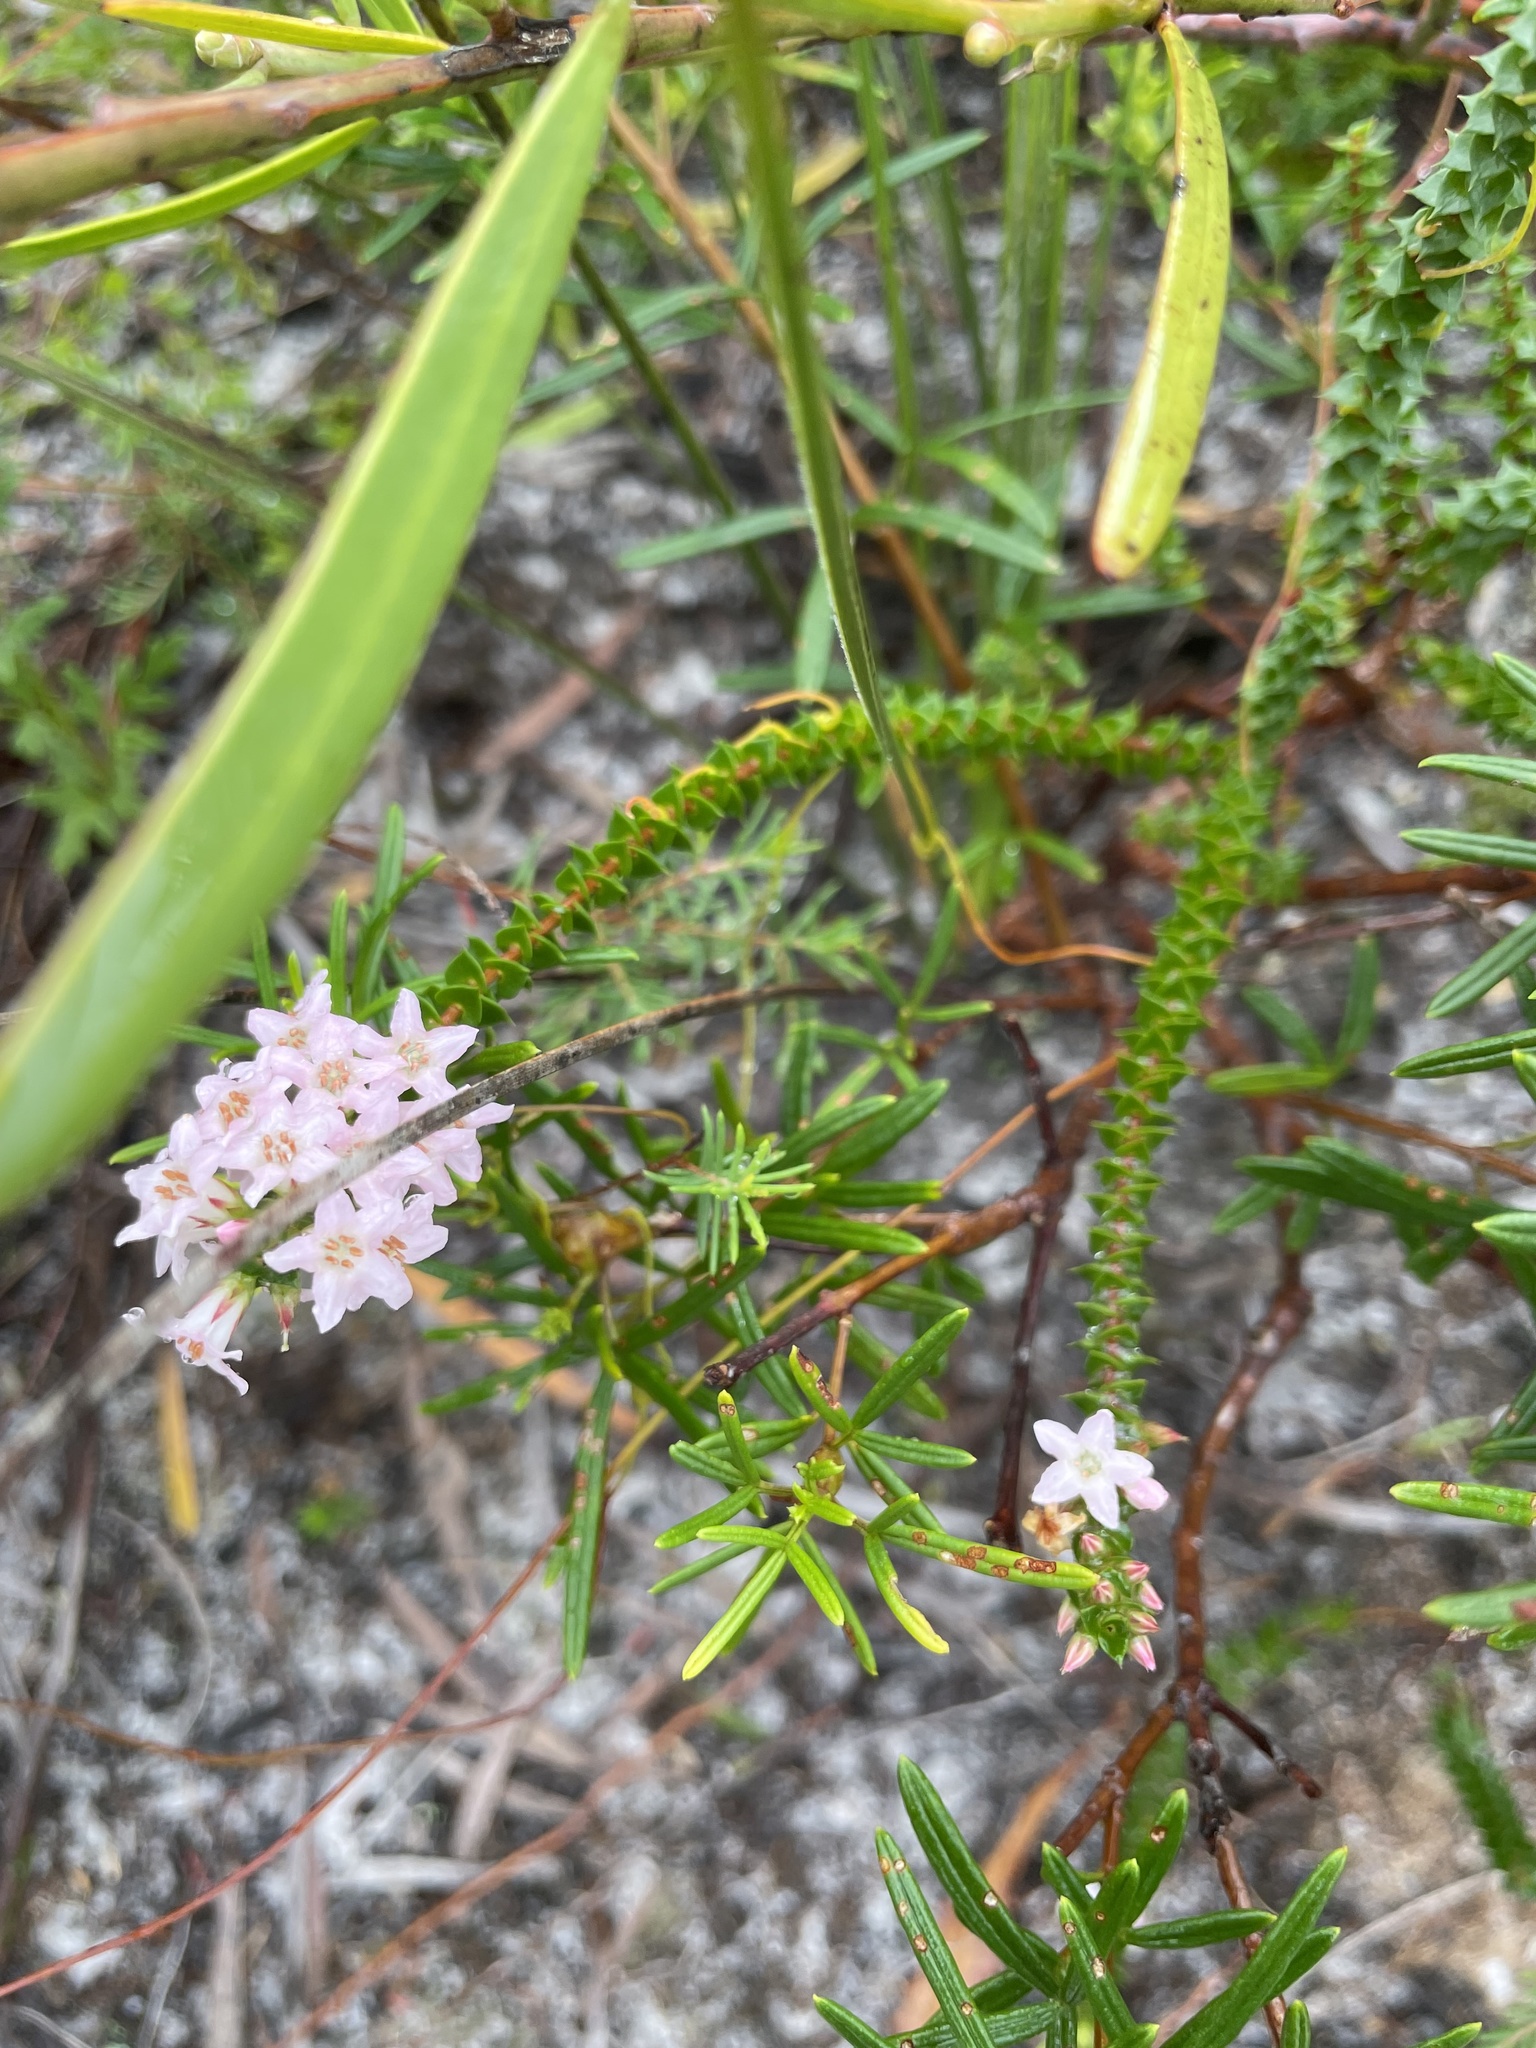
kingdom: Plantae
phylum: Tracheophyta
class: Magnoliopsida
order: Ericales
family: Ericaceae
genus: Epacris
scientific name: Epacris pulchella
